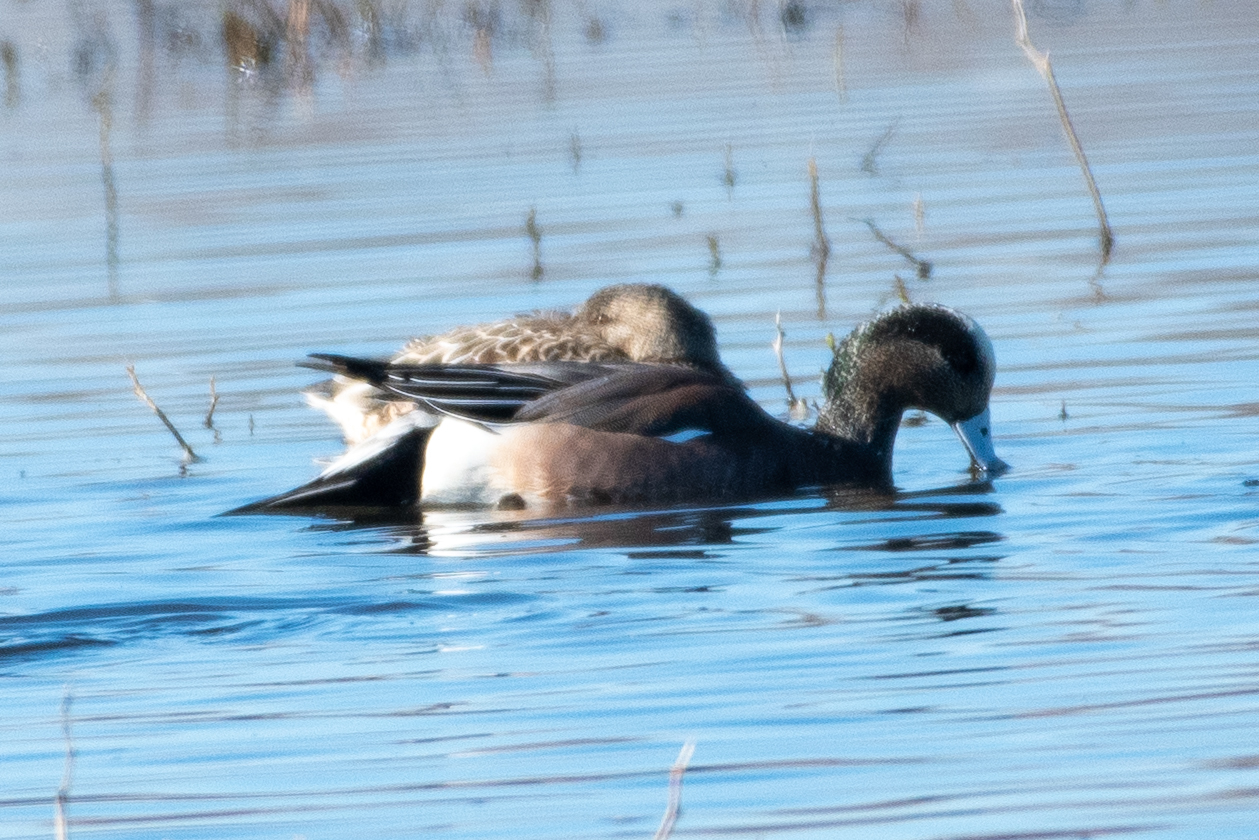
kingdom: Animalia
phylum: Chordata
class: Aves
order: Anseriformes
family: Anatidae
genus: Mareca
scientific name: Mareca americana
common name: American wigeon
